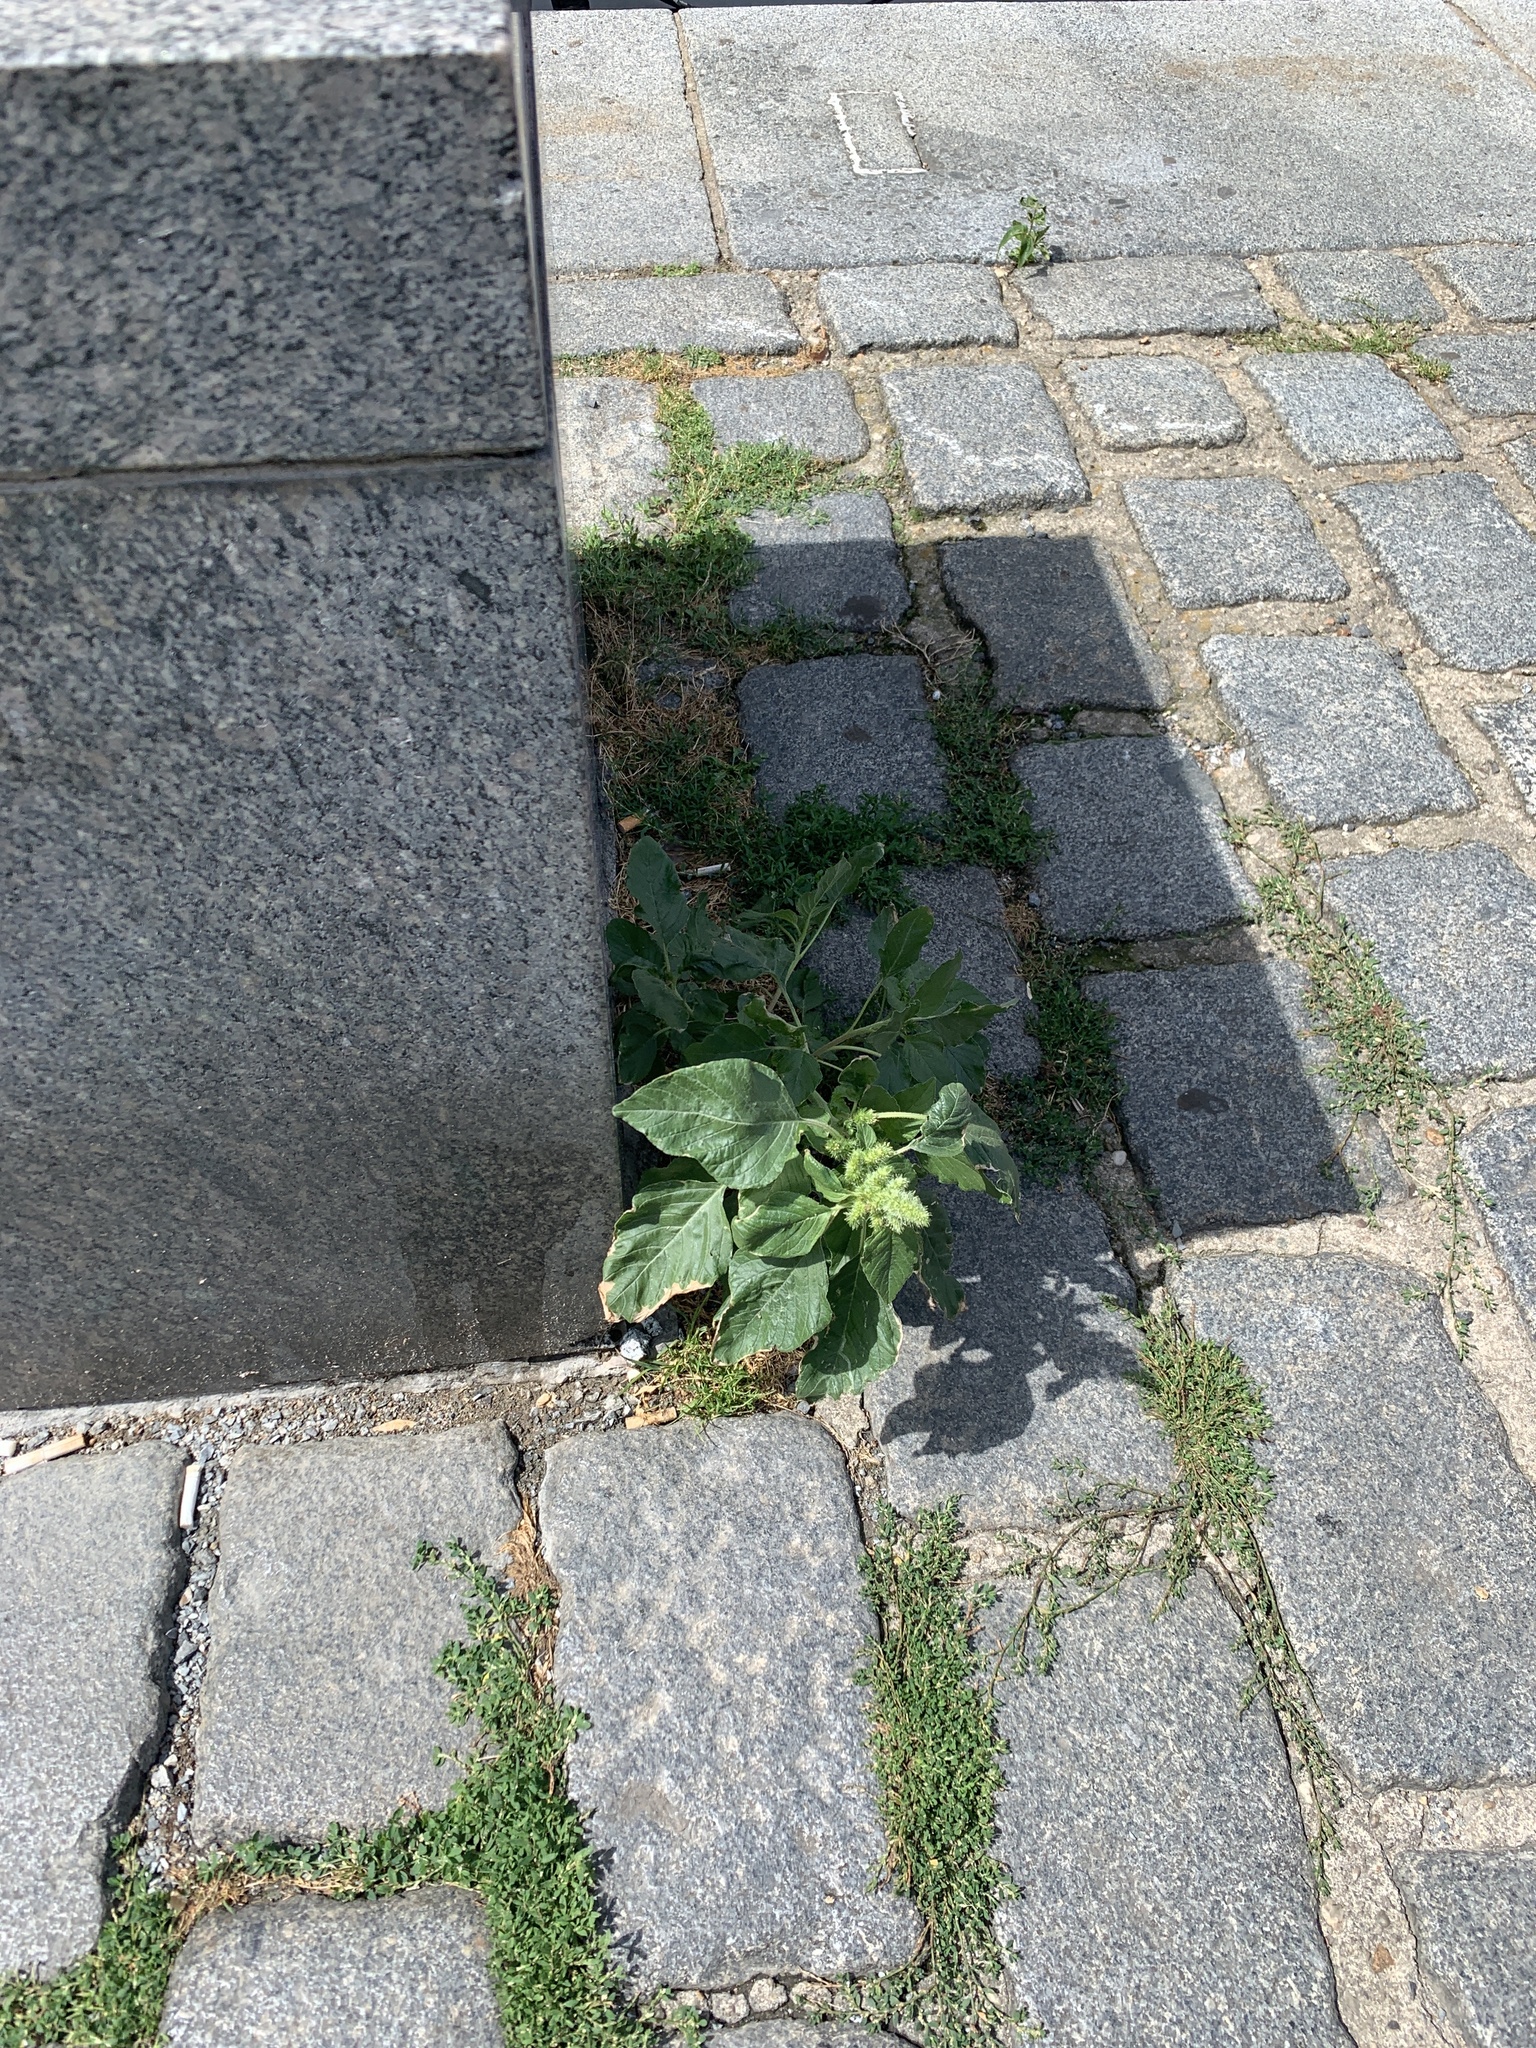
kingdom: Plantae
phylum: Tracheophyta
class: Magnoliopsida
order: Caryophyllales
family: Amaranthaceae
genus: Amaranthus
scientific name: Amaranthus retroflexus
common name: Redroot amaranth
